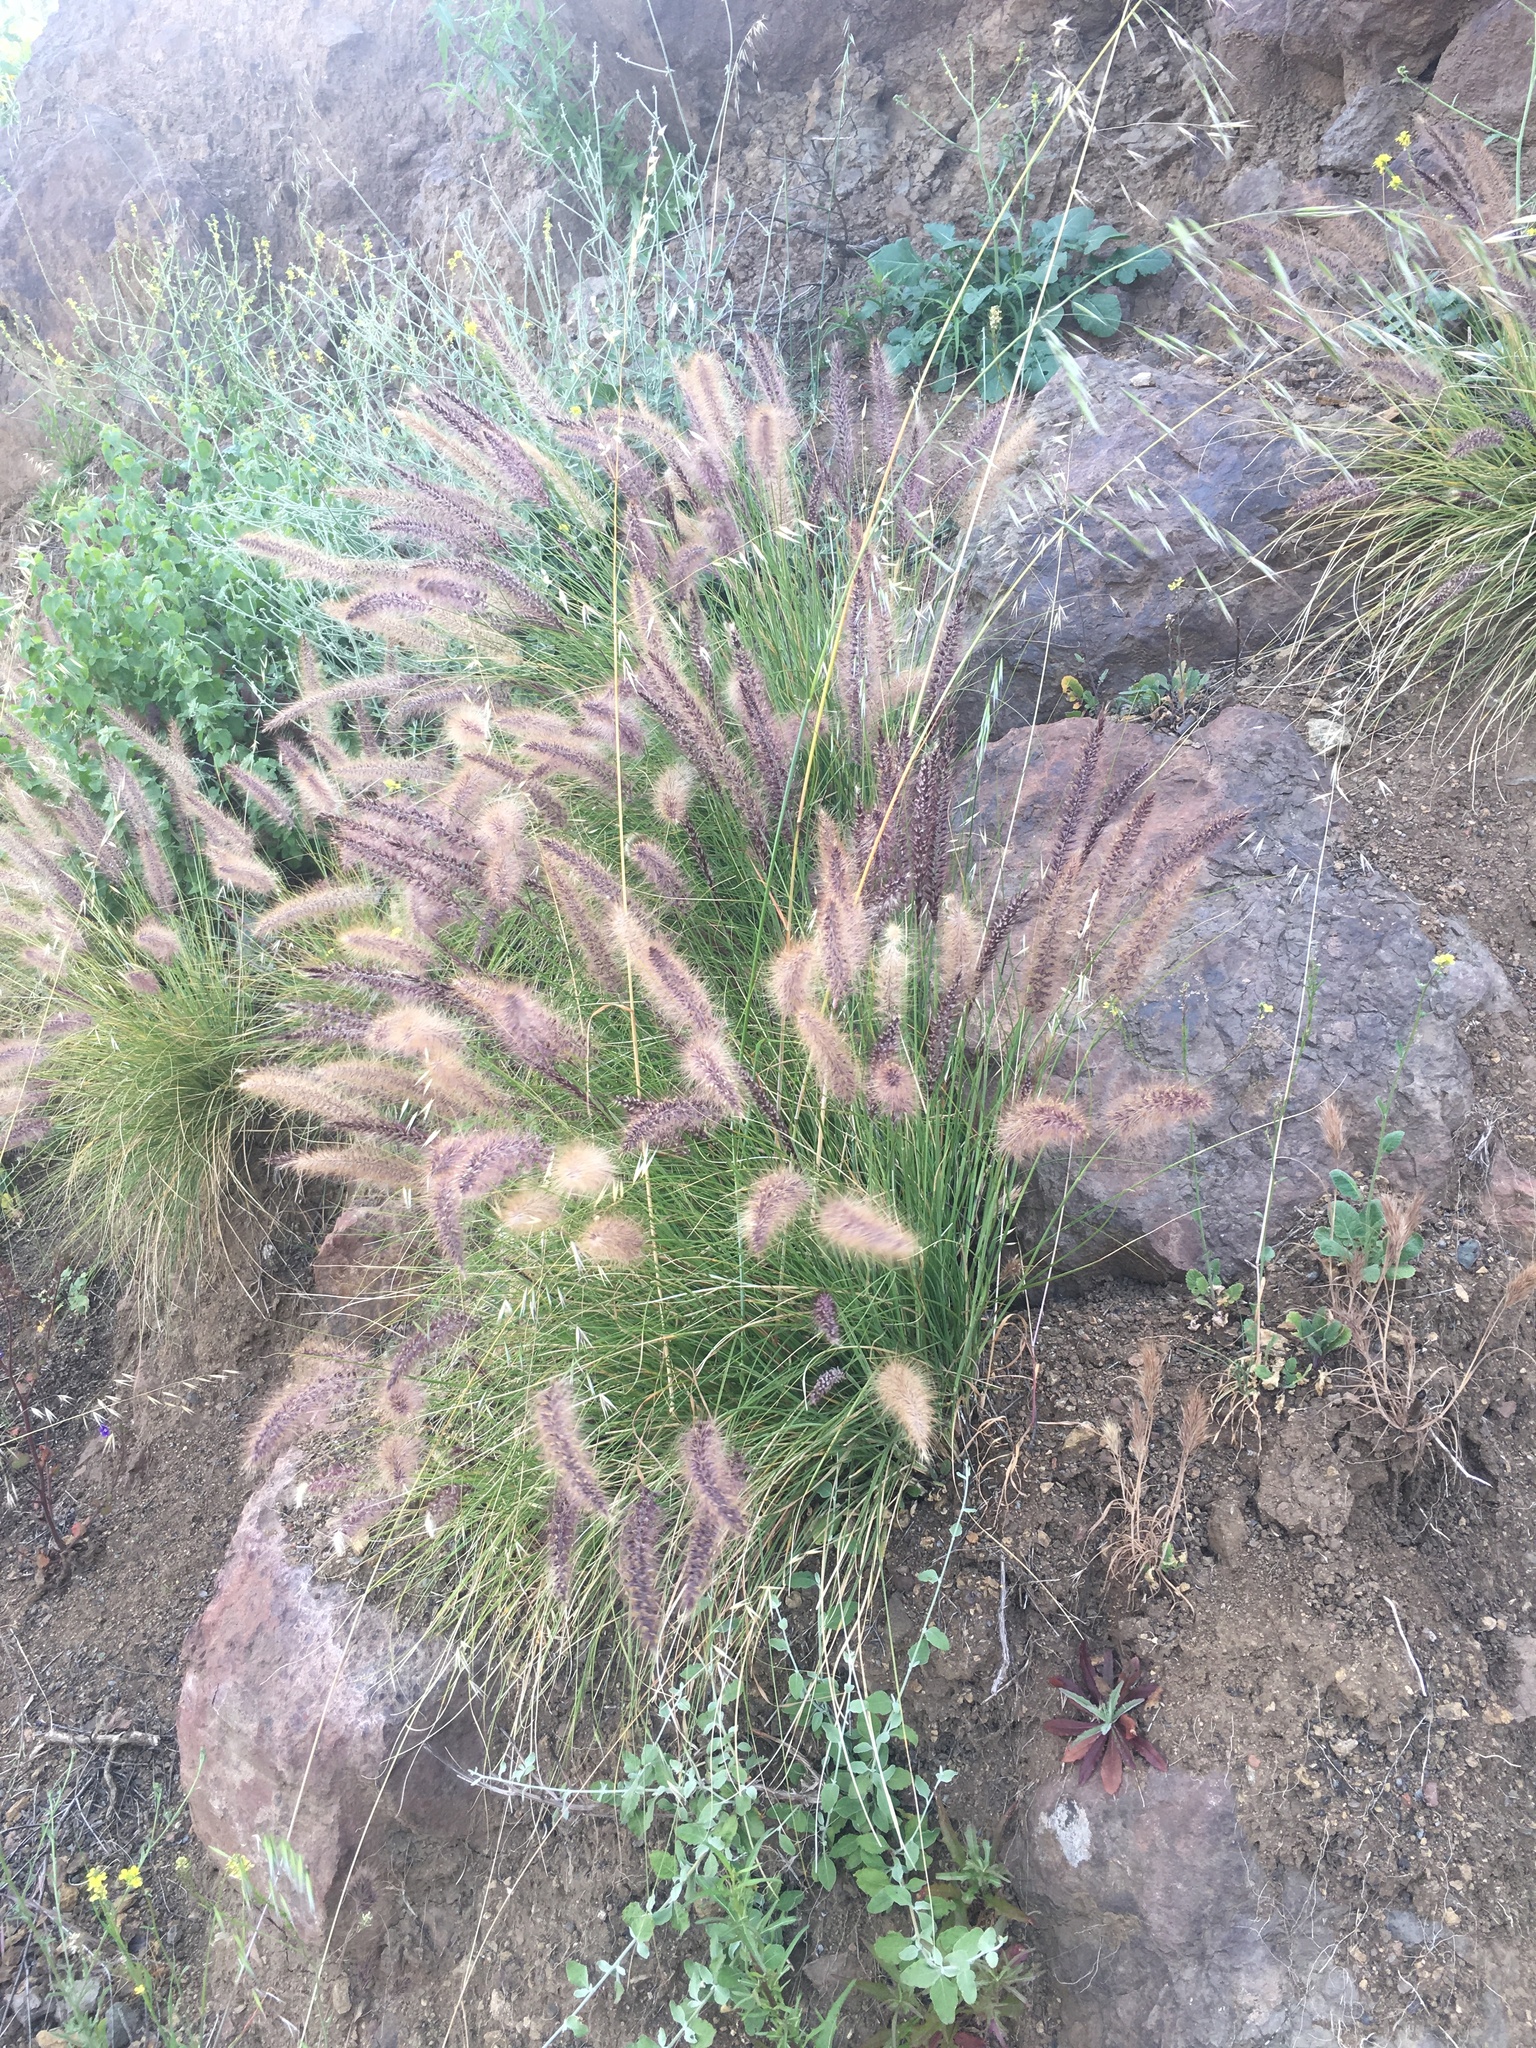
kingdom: Plantae
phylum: Tracheophyta
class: Liliopsida
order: Poales
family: Poaceae
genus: Cenchrus
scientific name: Cenchrus setaceus
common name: Crimson fountaingrass
